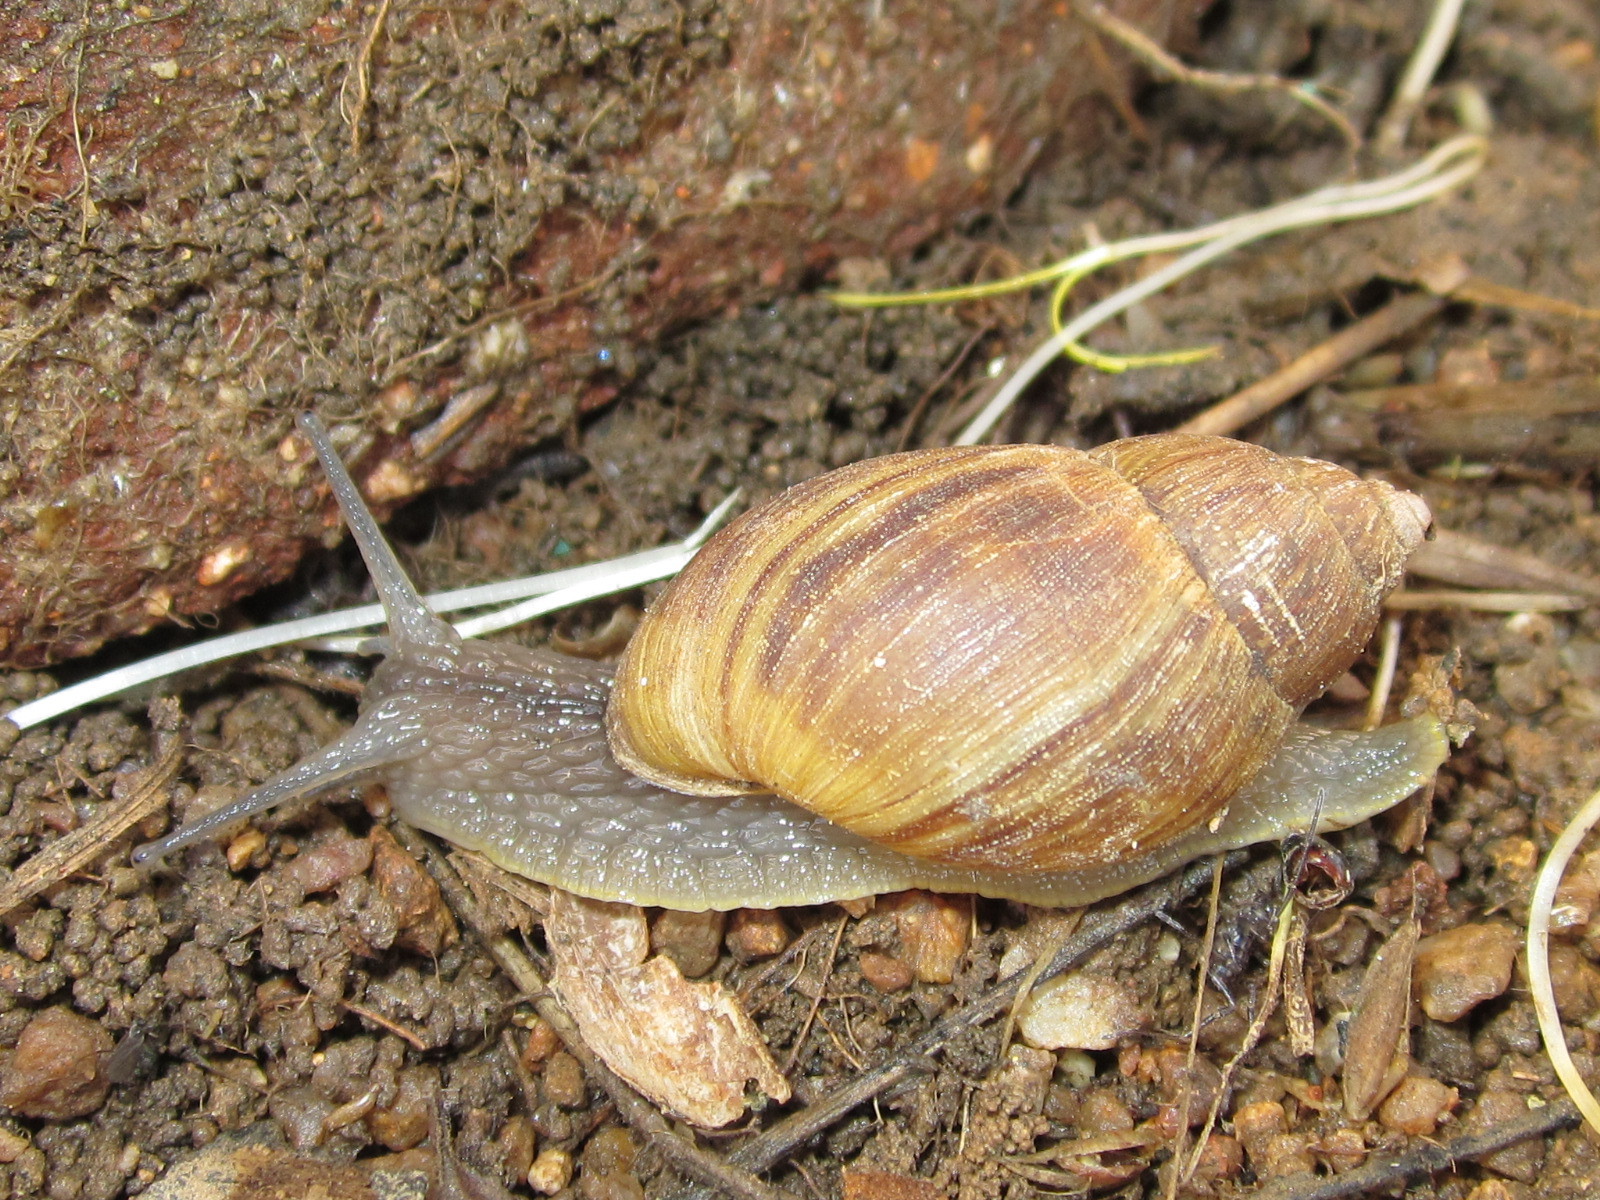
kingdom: Animalia
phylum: Mollusca
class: Gastropoda
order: Stylommatophora
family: Bothriembryontidae
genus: Plectostylus
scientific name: Plectostylus chilensis
